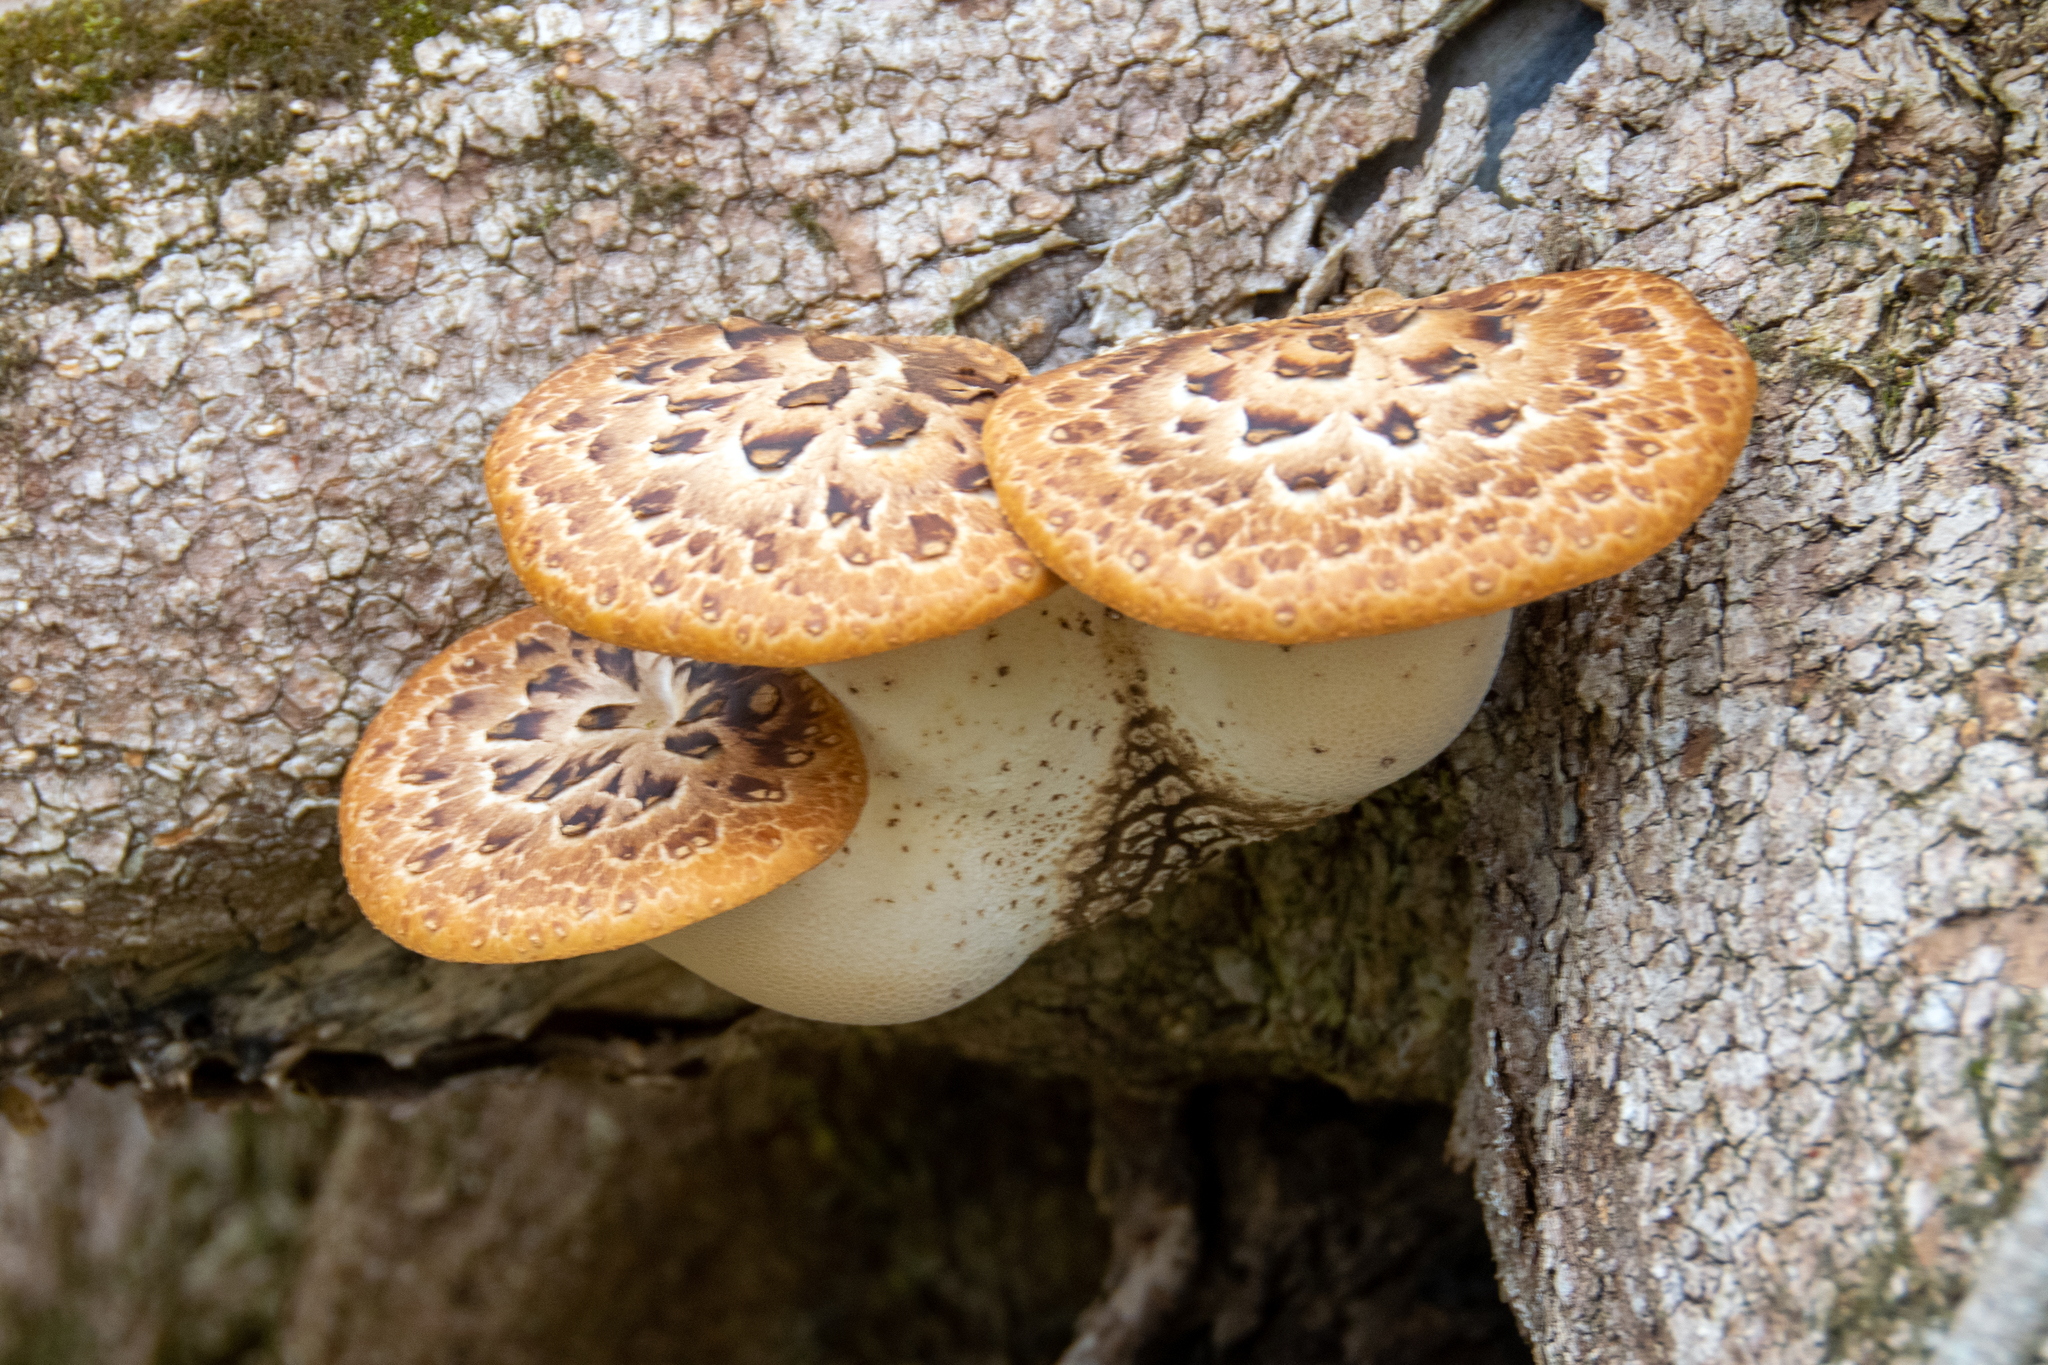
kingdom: Fungi
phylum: Basidiomycota
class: Agaricomycetes
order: Polyporales
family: Polyporaceae
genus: Cerioporus
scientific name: Cerioporus squamosus
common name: Dryad's saddle
